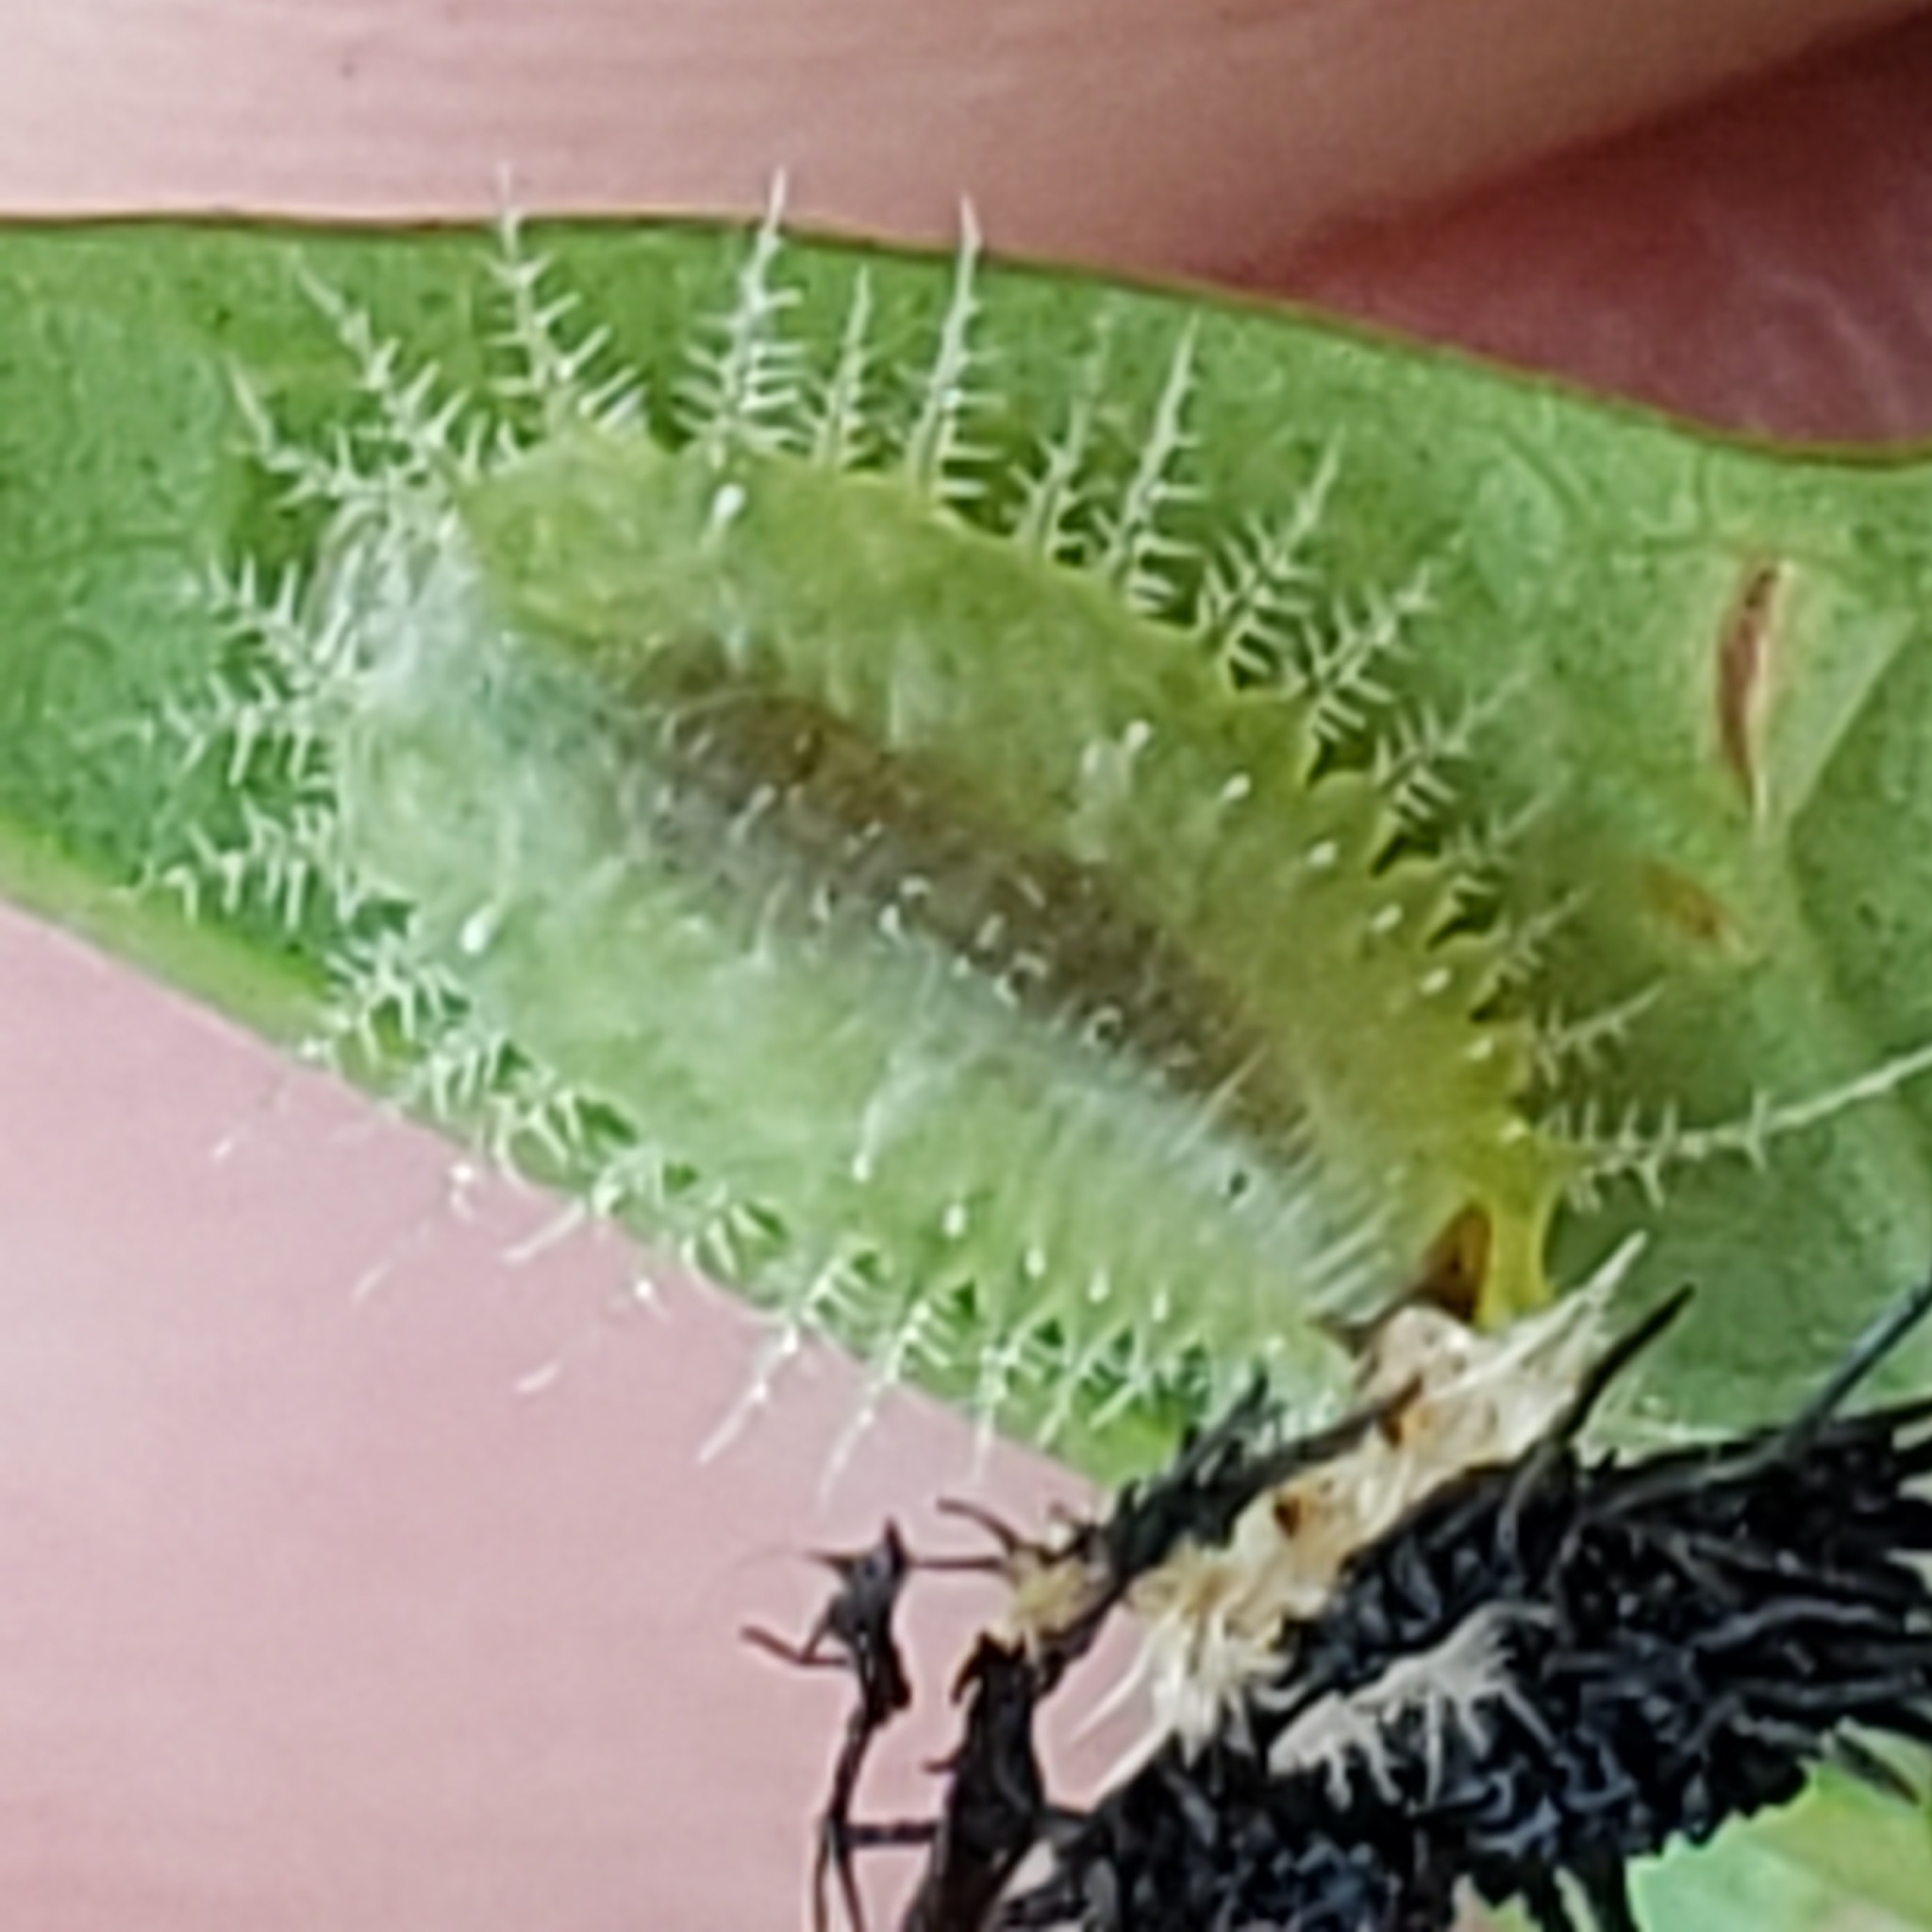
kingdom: Animalia
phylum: Arthropoda
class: Insecta
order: Coleoptera
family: Chrysomelidae
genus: Deloyala
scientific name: Deloyala guttata
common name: Mottled tortoise beetle
